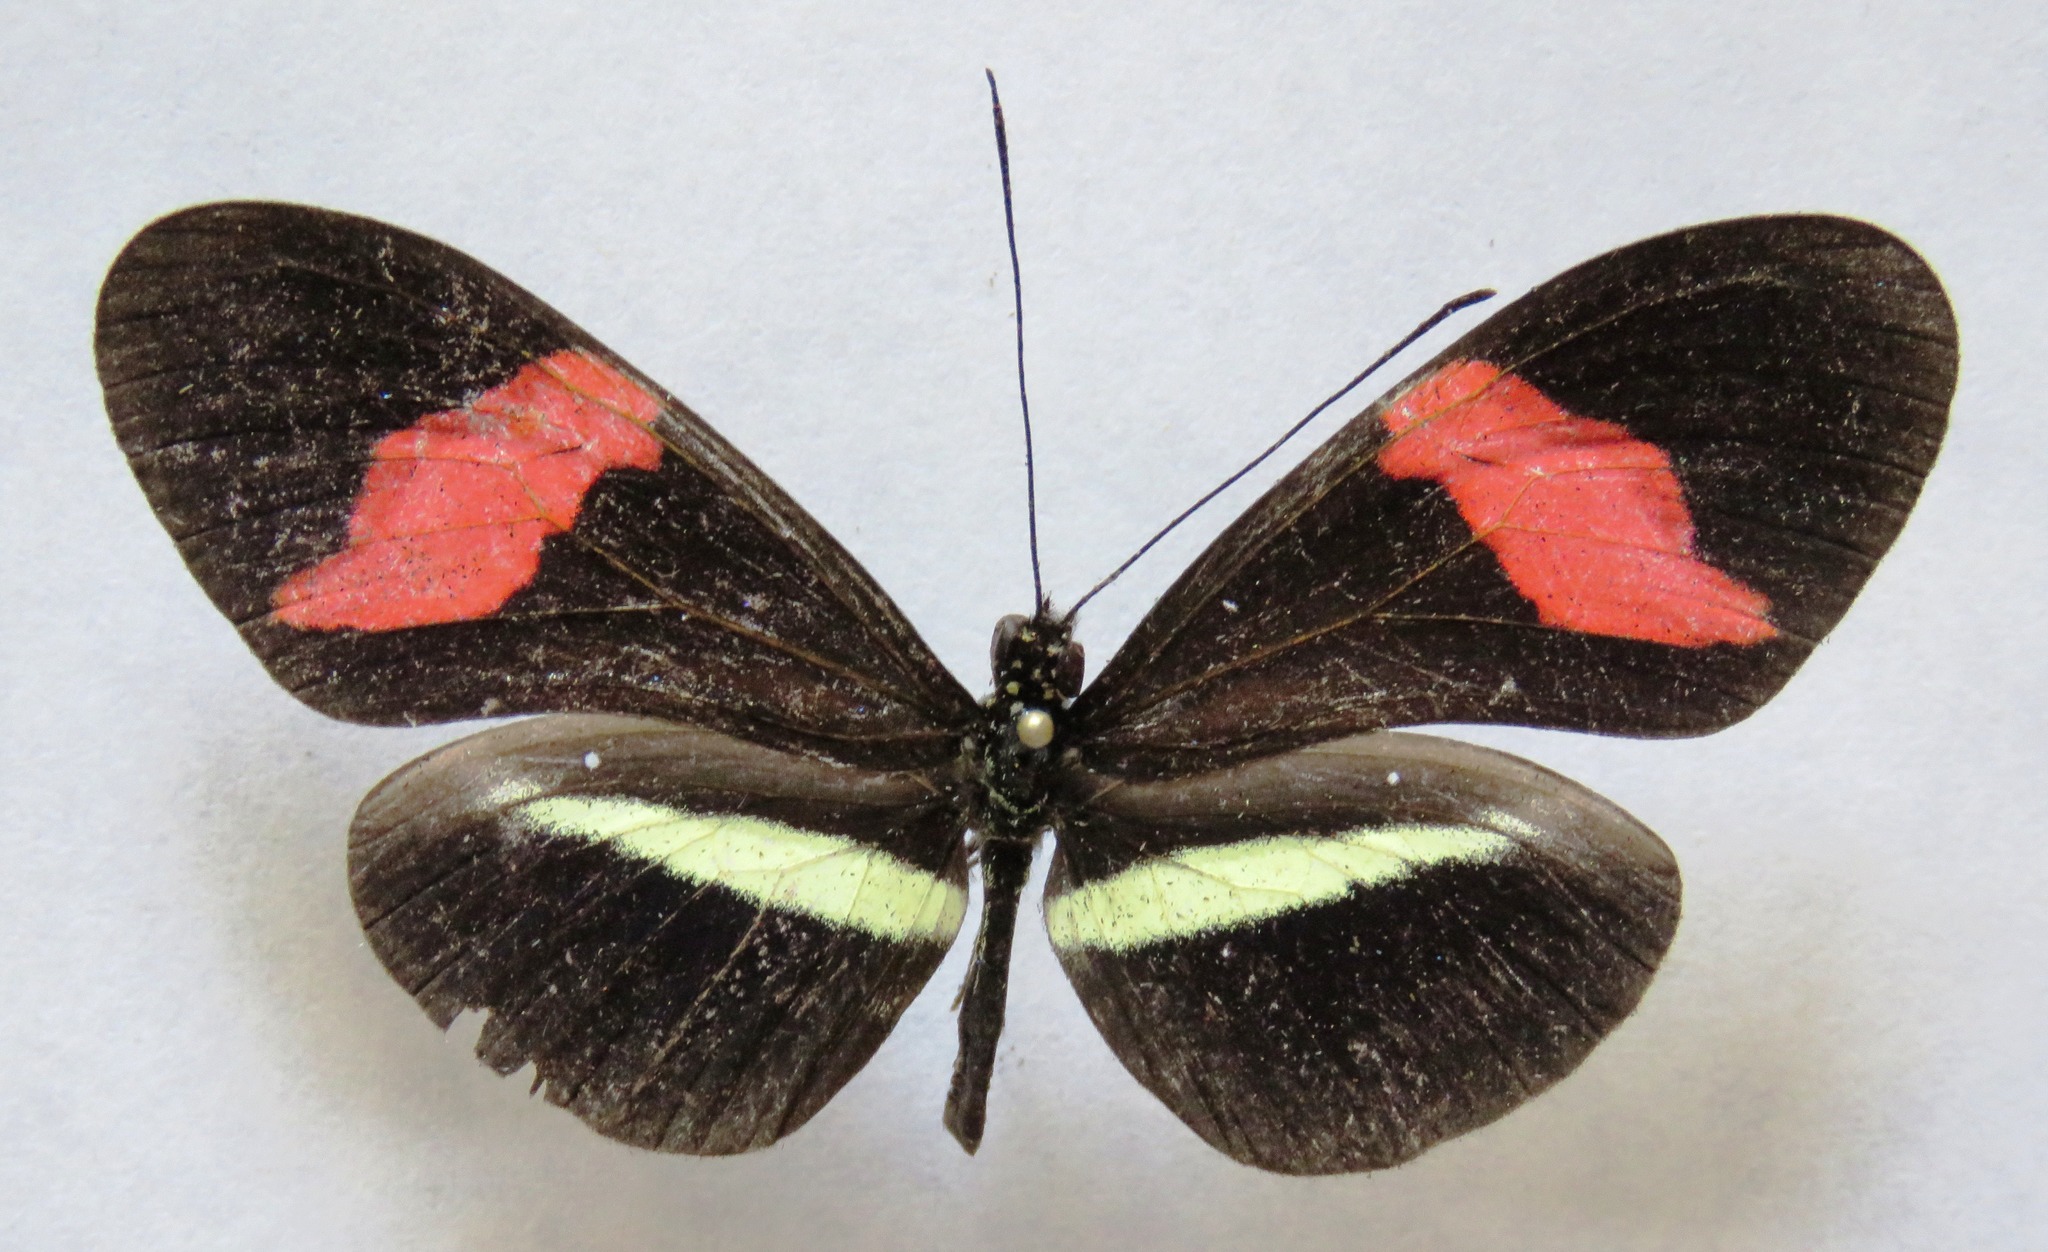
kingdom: Animalia
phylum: Arthropoda
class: Insecta
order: Lepidoptera
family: Nymphalidae
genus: Tirumala
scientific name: Tirumala petiverana
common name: Blue monarch
